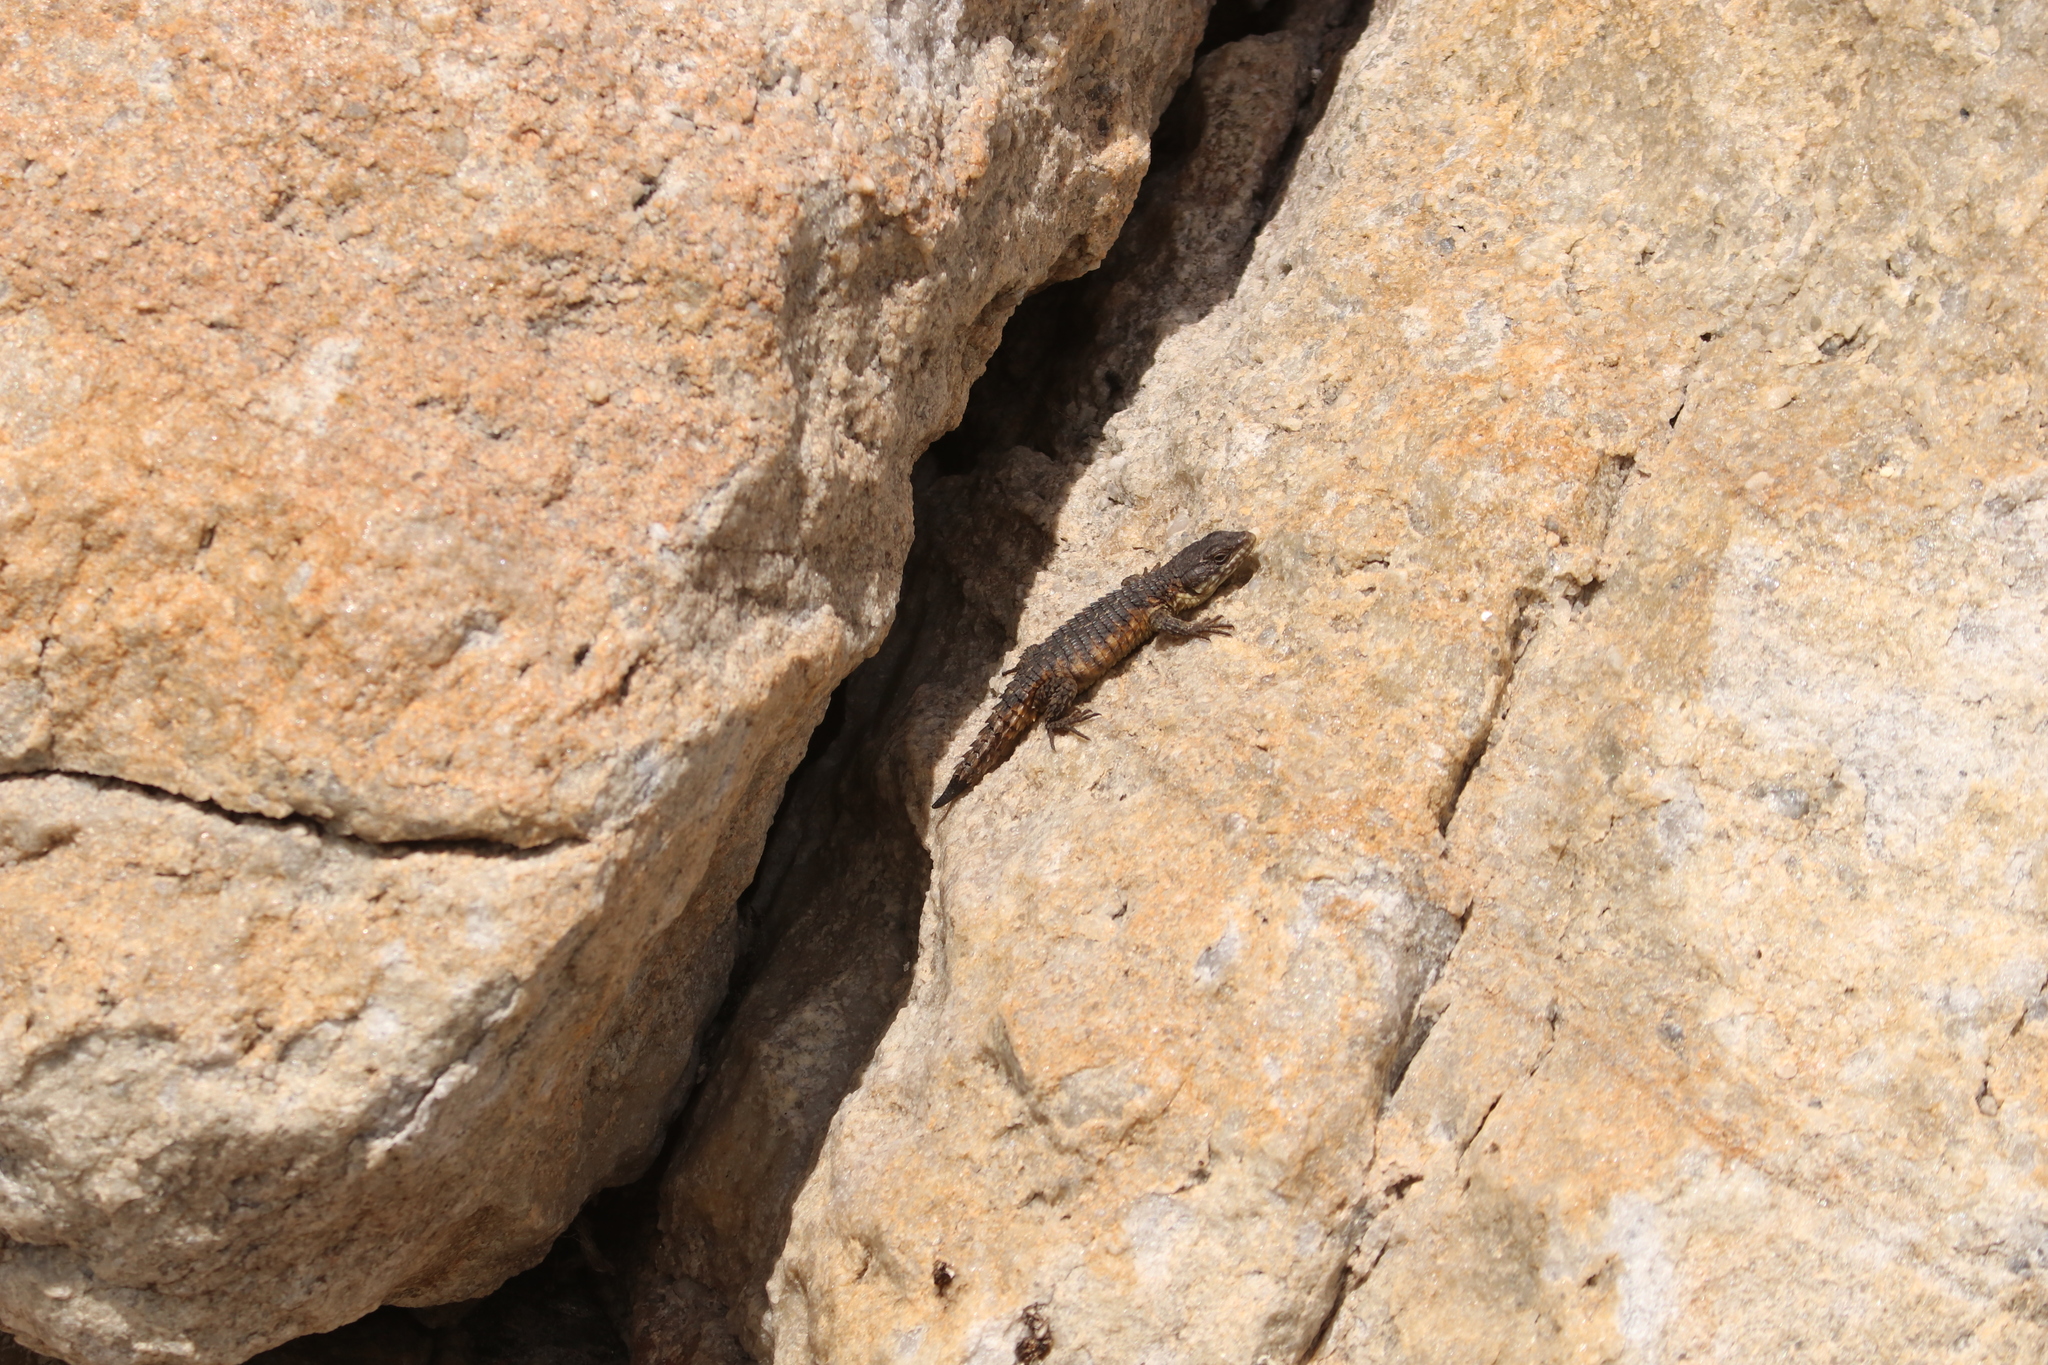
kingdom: Animalia
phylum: Chordata
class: Squamata
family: Cordylidae
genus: Cordylus
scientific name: Cordylus cordylus
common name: Cape girdled lizard
